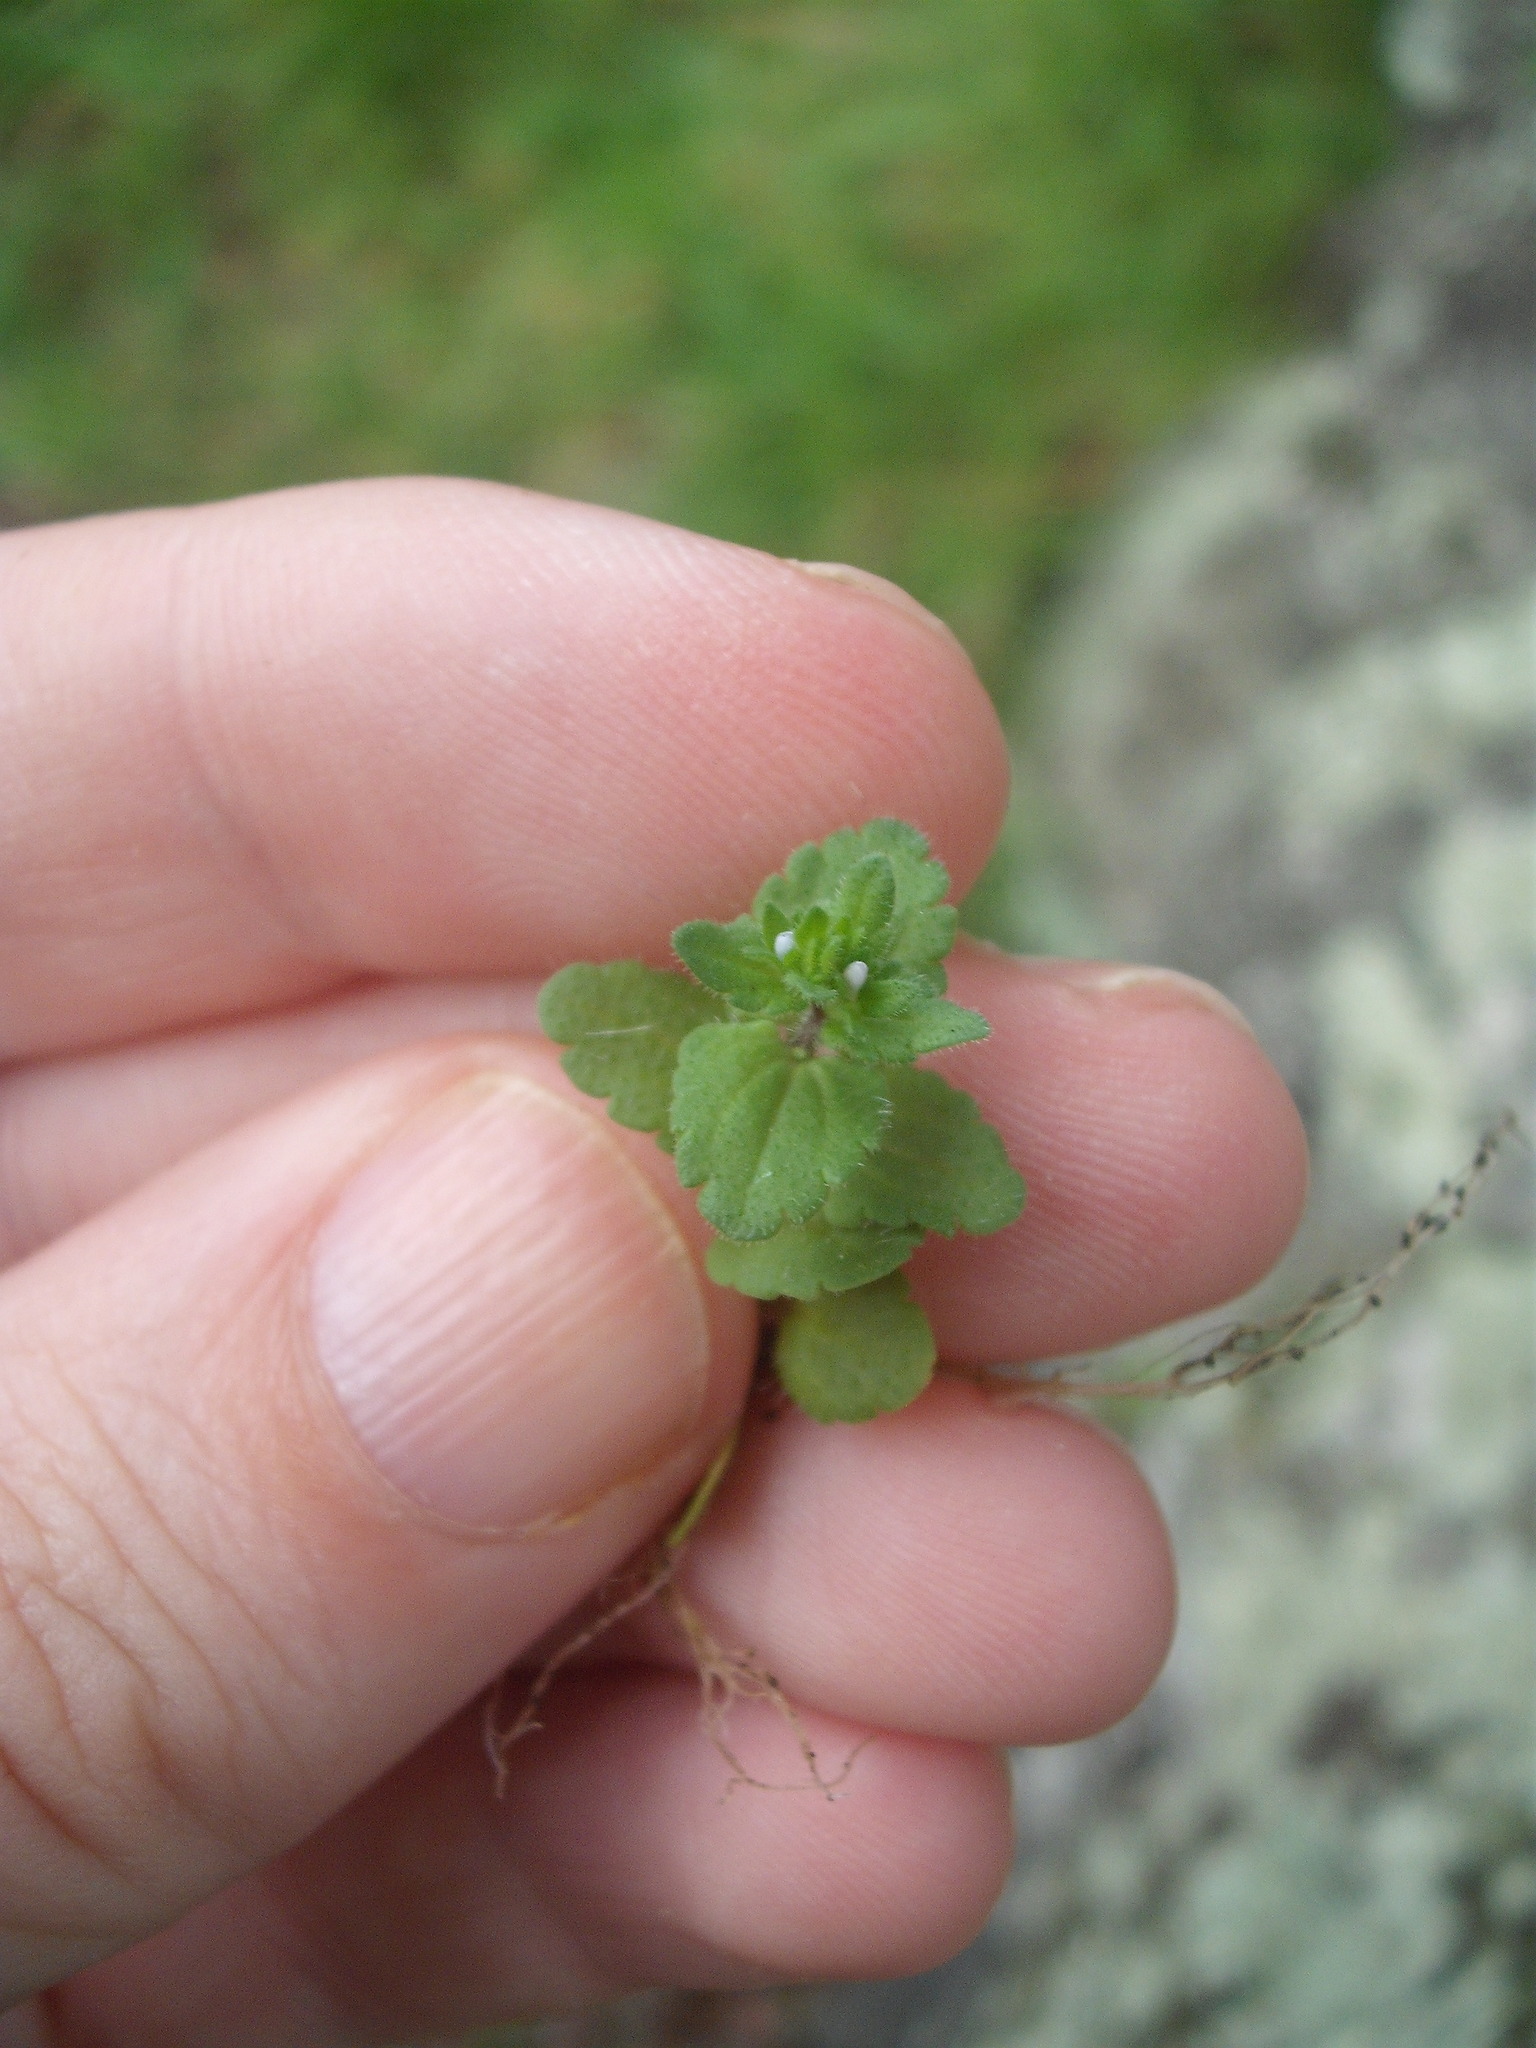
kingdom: Plantae
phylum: Tracheophyta
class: Magnoliopsida
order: Lamiales
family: Plantaginaceae
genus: Veronica
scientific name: Veronica arvensis
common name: Corn speedwell
